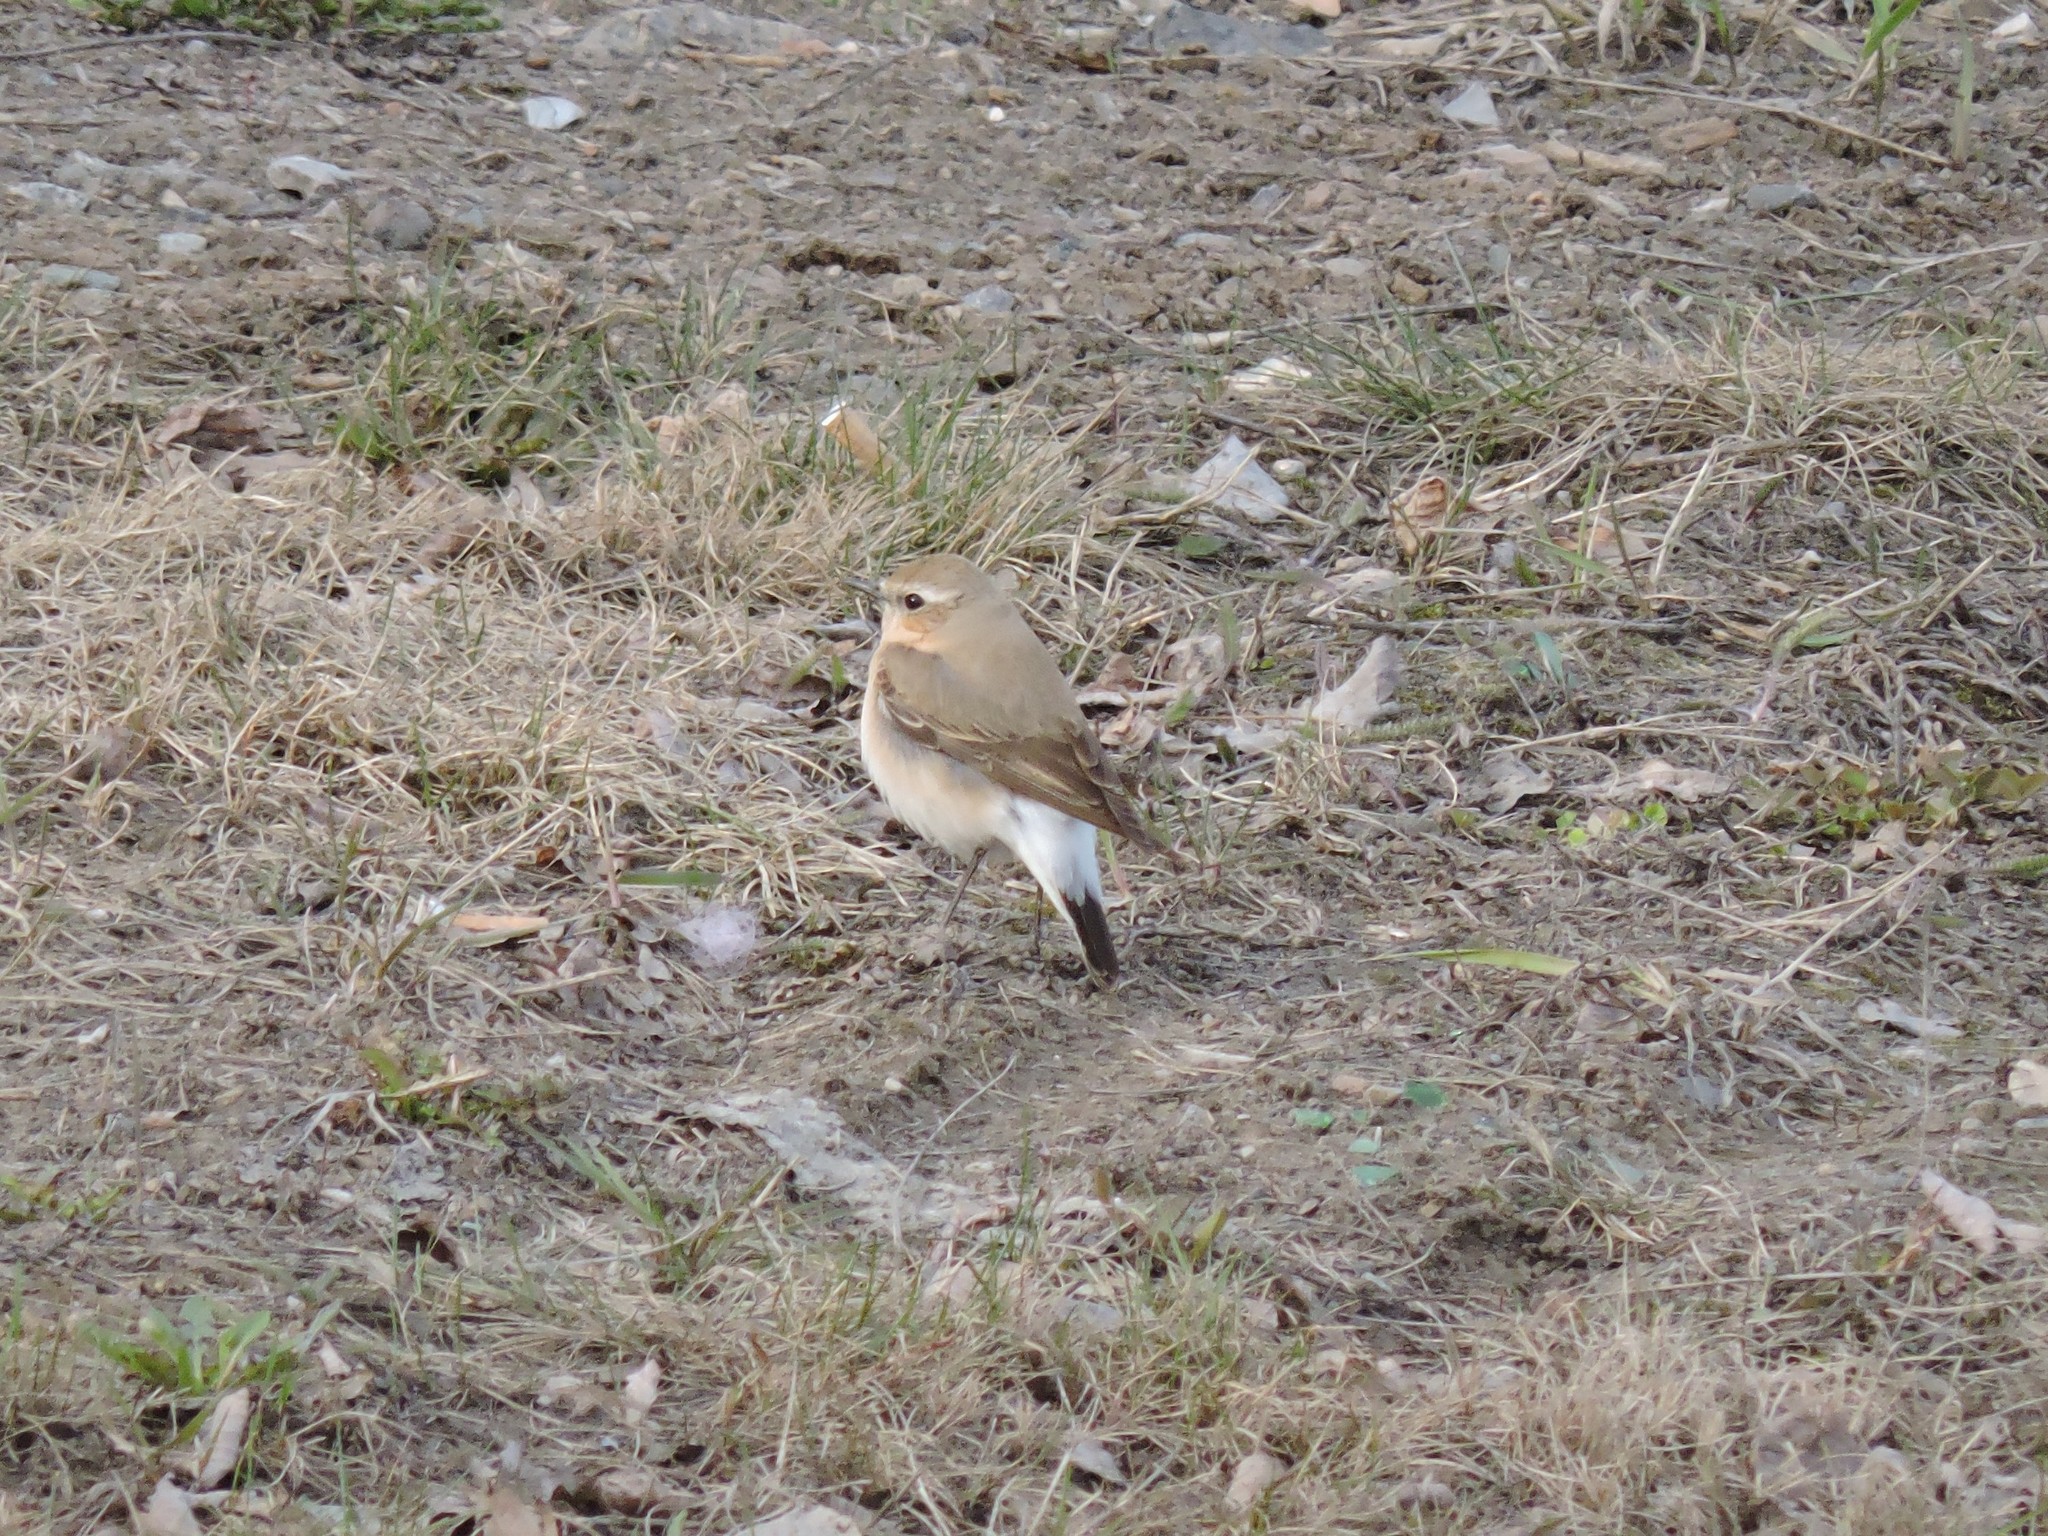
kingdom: Animalia
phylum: Chordata
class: Aves
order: Passeriformes
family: Muscicapidae
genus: Oenanthe
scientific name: Oenanthe oenanthe
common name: Northern wheatear
